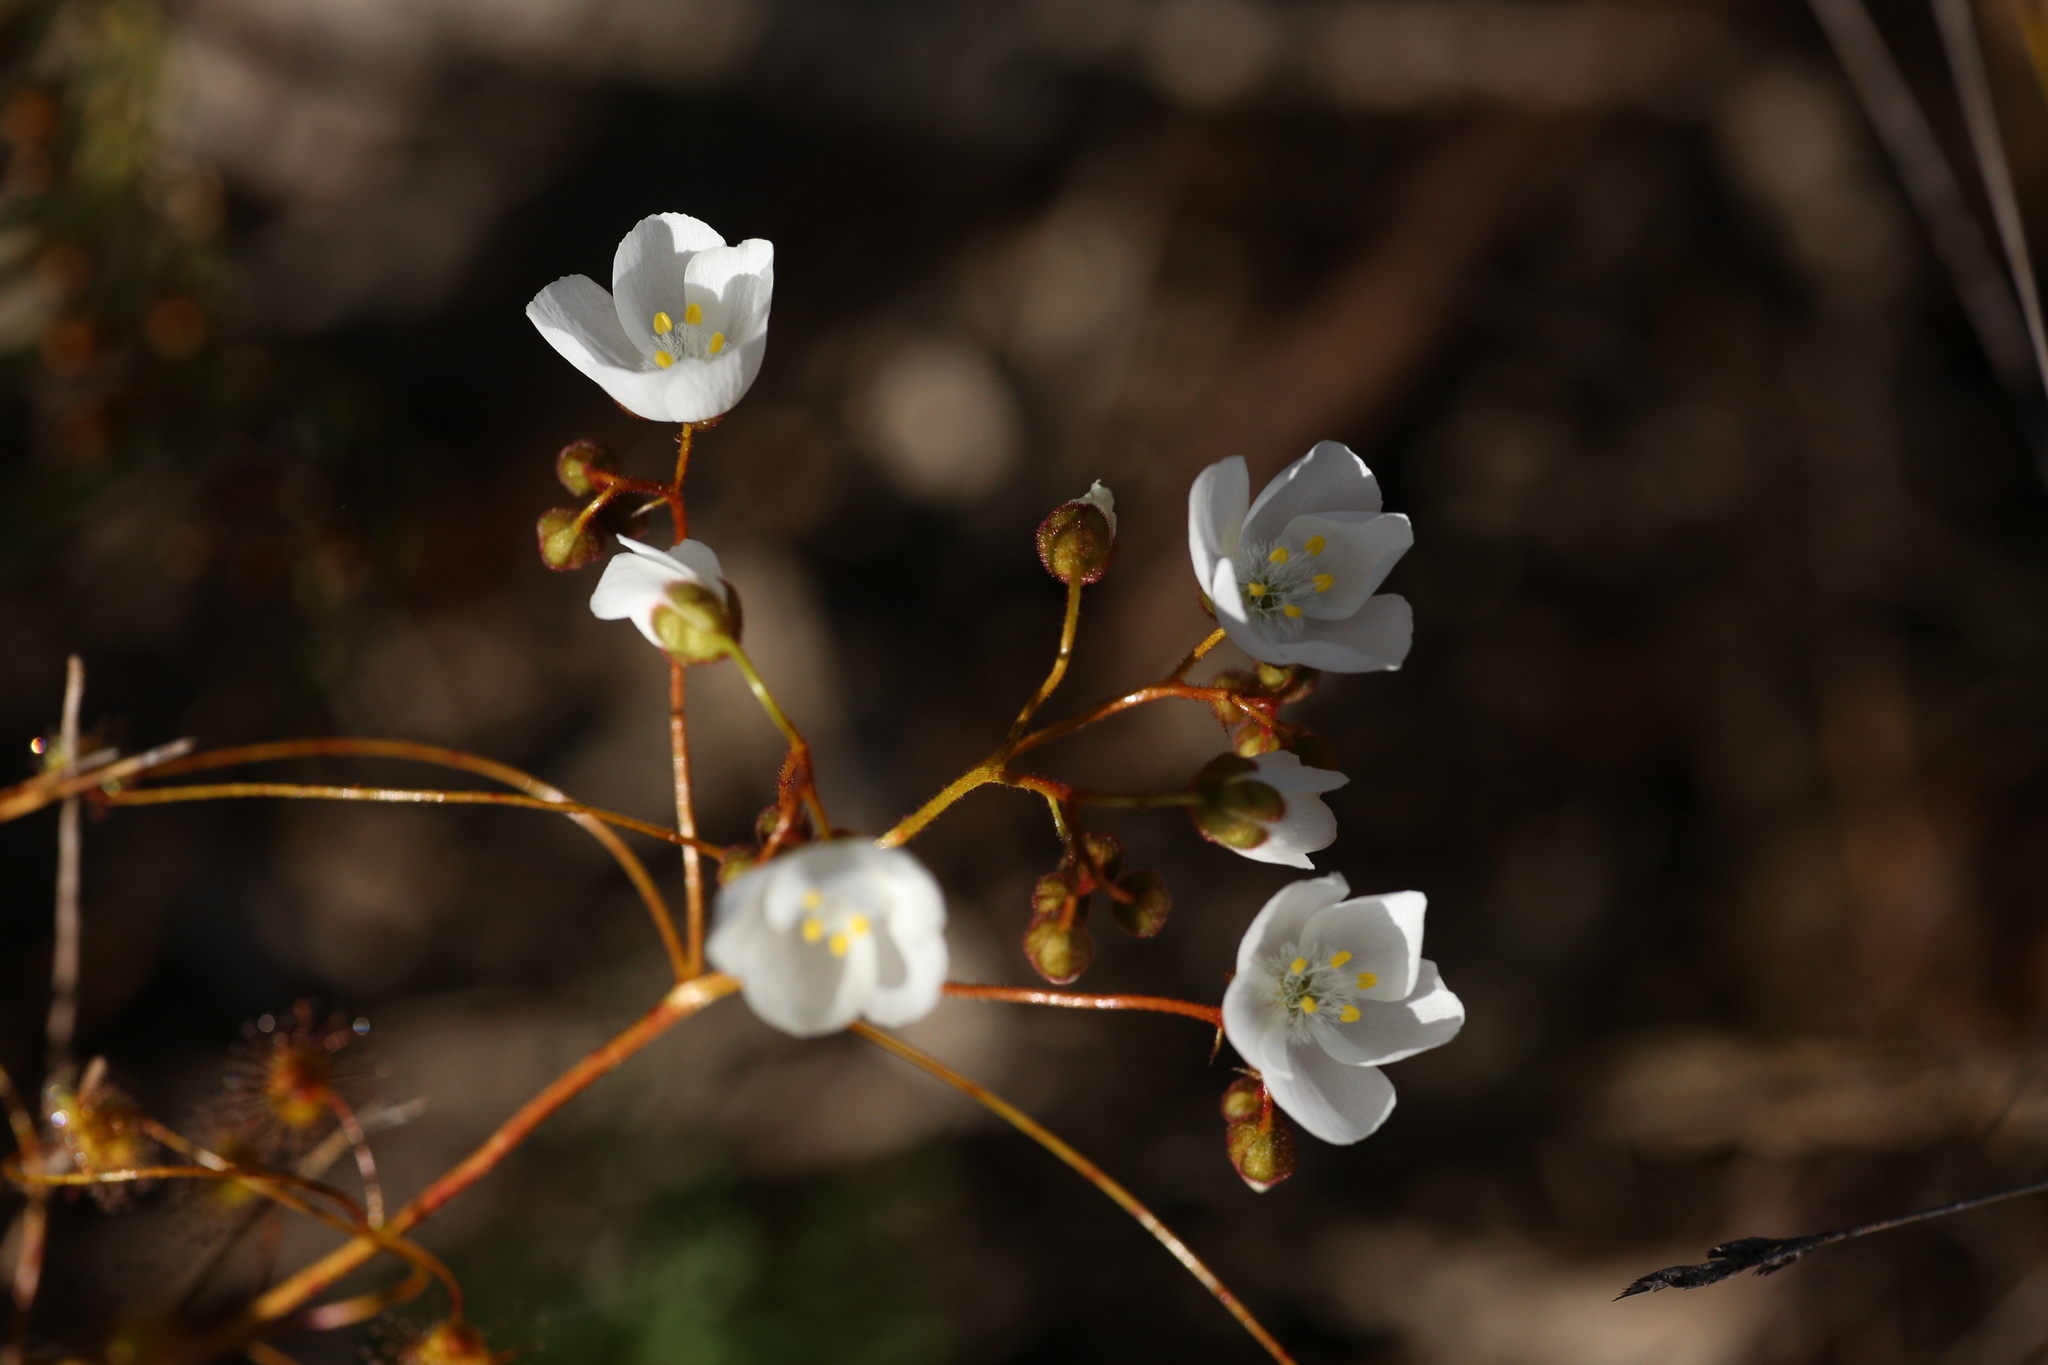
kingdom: Plantae
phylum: Tracheophyta
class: Magnoliopsida
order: Caryophyllales
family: Droseraceae
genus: Drosera
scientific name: Drosera macrantha
